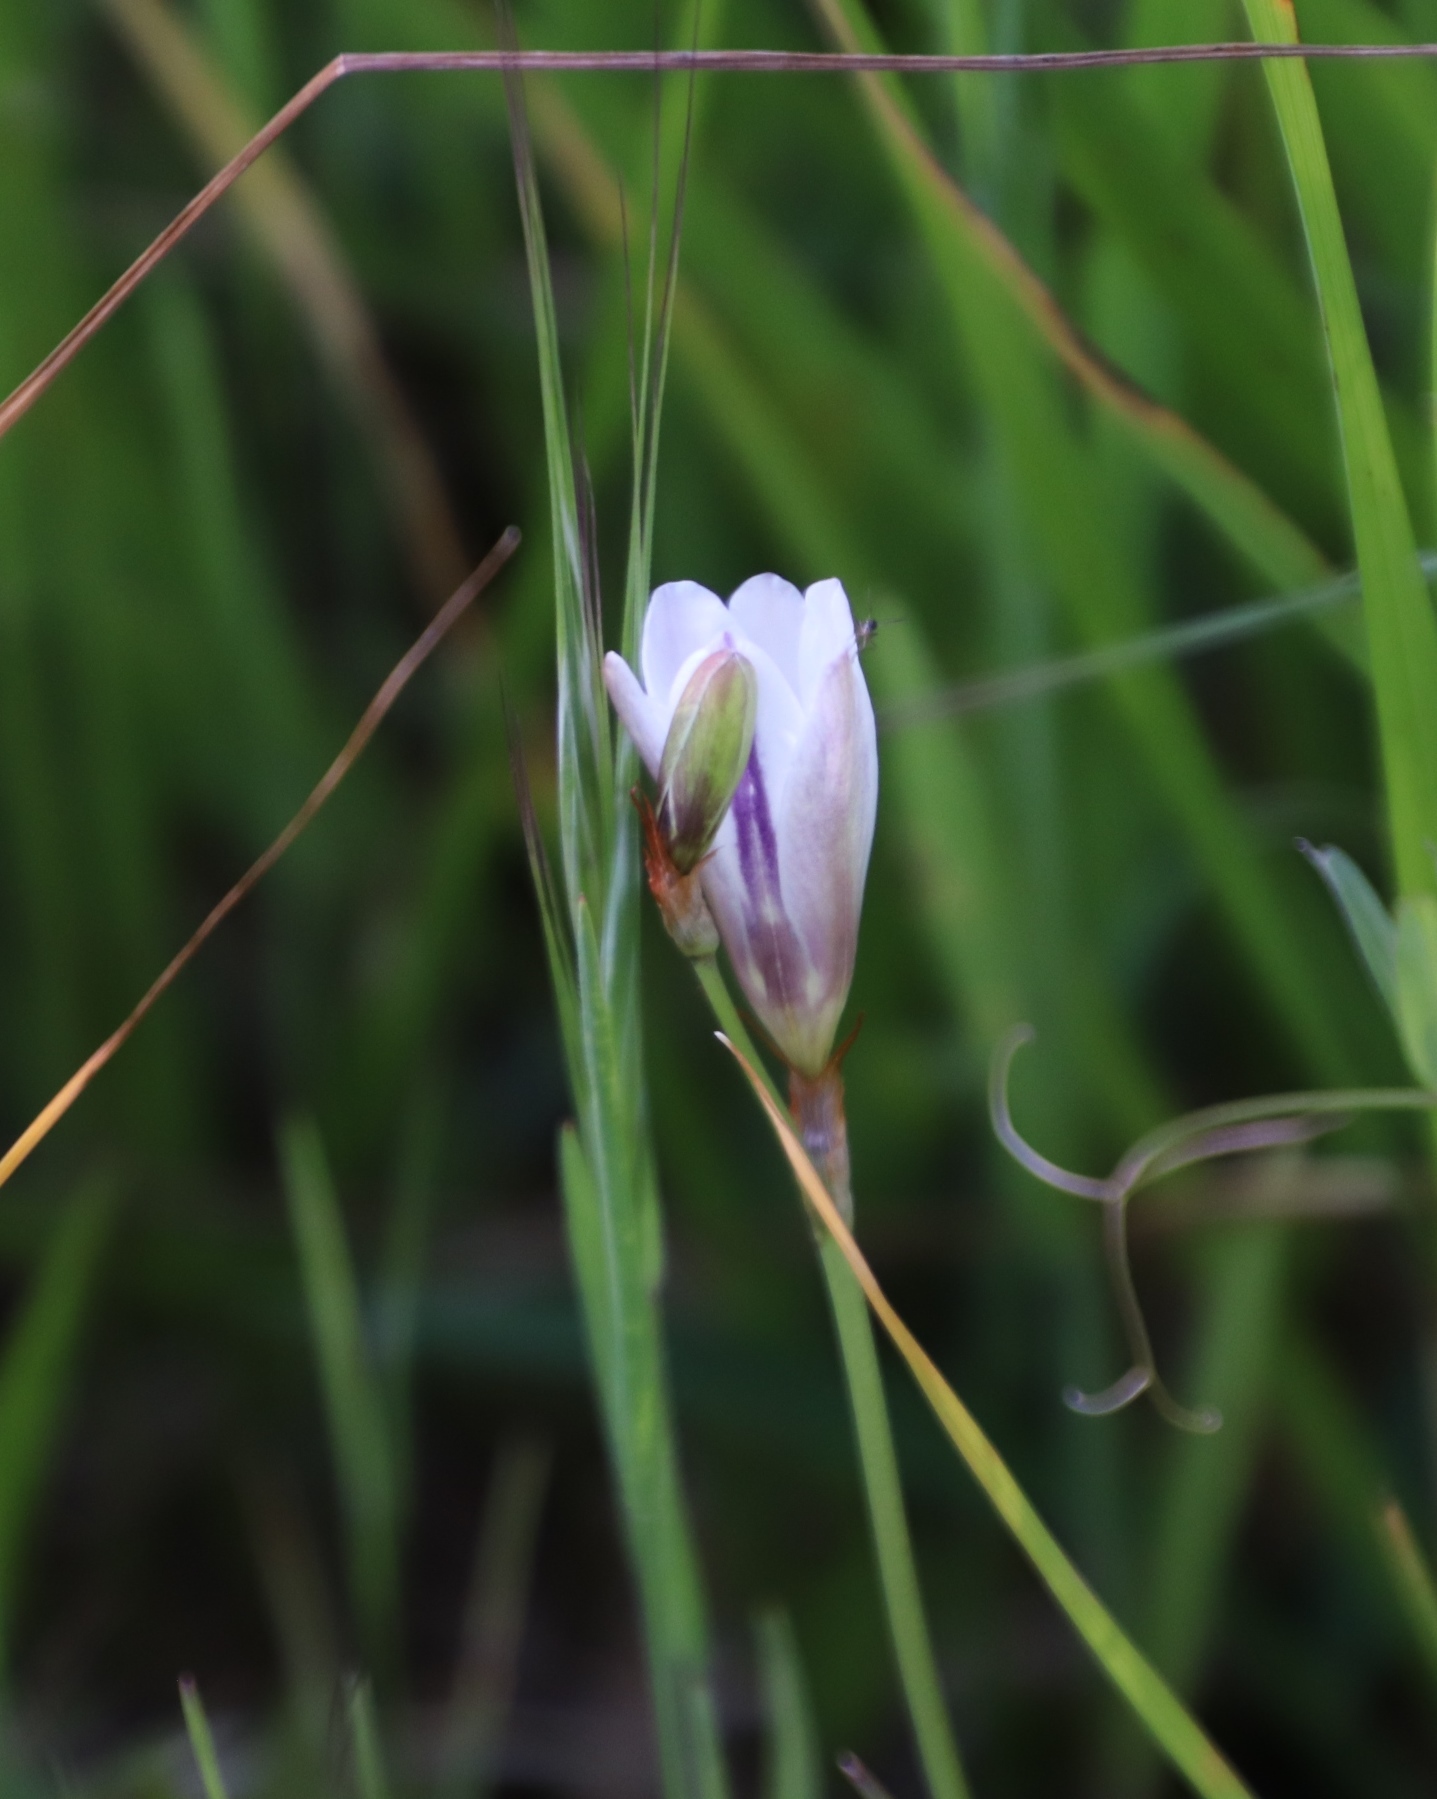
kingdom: Plantae
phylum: Tracheophyta
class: Liliopsida
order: Asparagales
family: Iridaceae
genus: Sparaxis
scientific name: Sparaxis bulbifera
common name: Harlequin-flower
